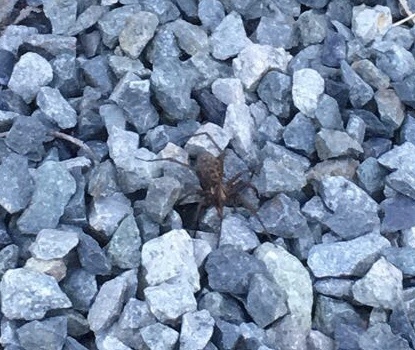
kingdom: Animalia
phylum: Arthropoda
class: Arachnida
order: Araneae
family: Agelenidae
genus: Eratigena
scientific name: Eratigena duellica
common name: Giant house spider
